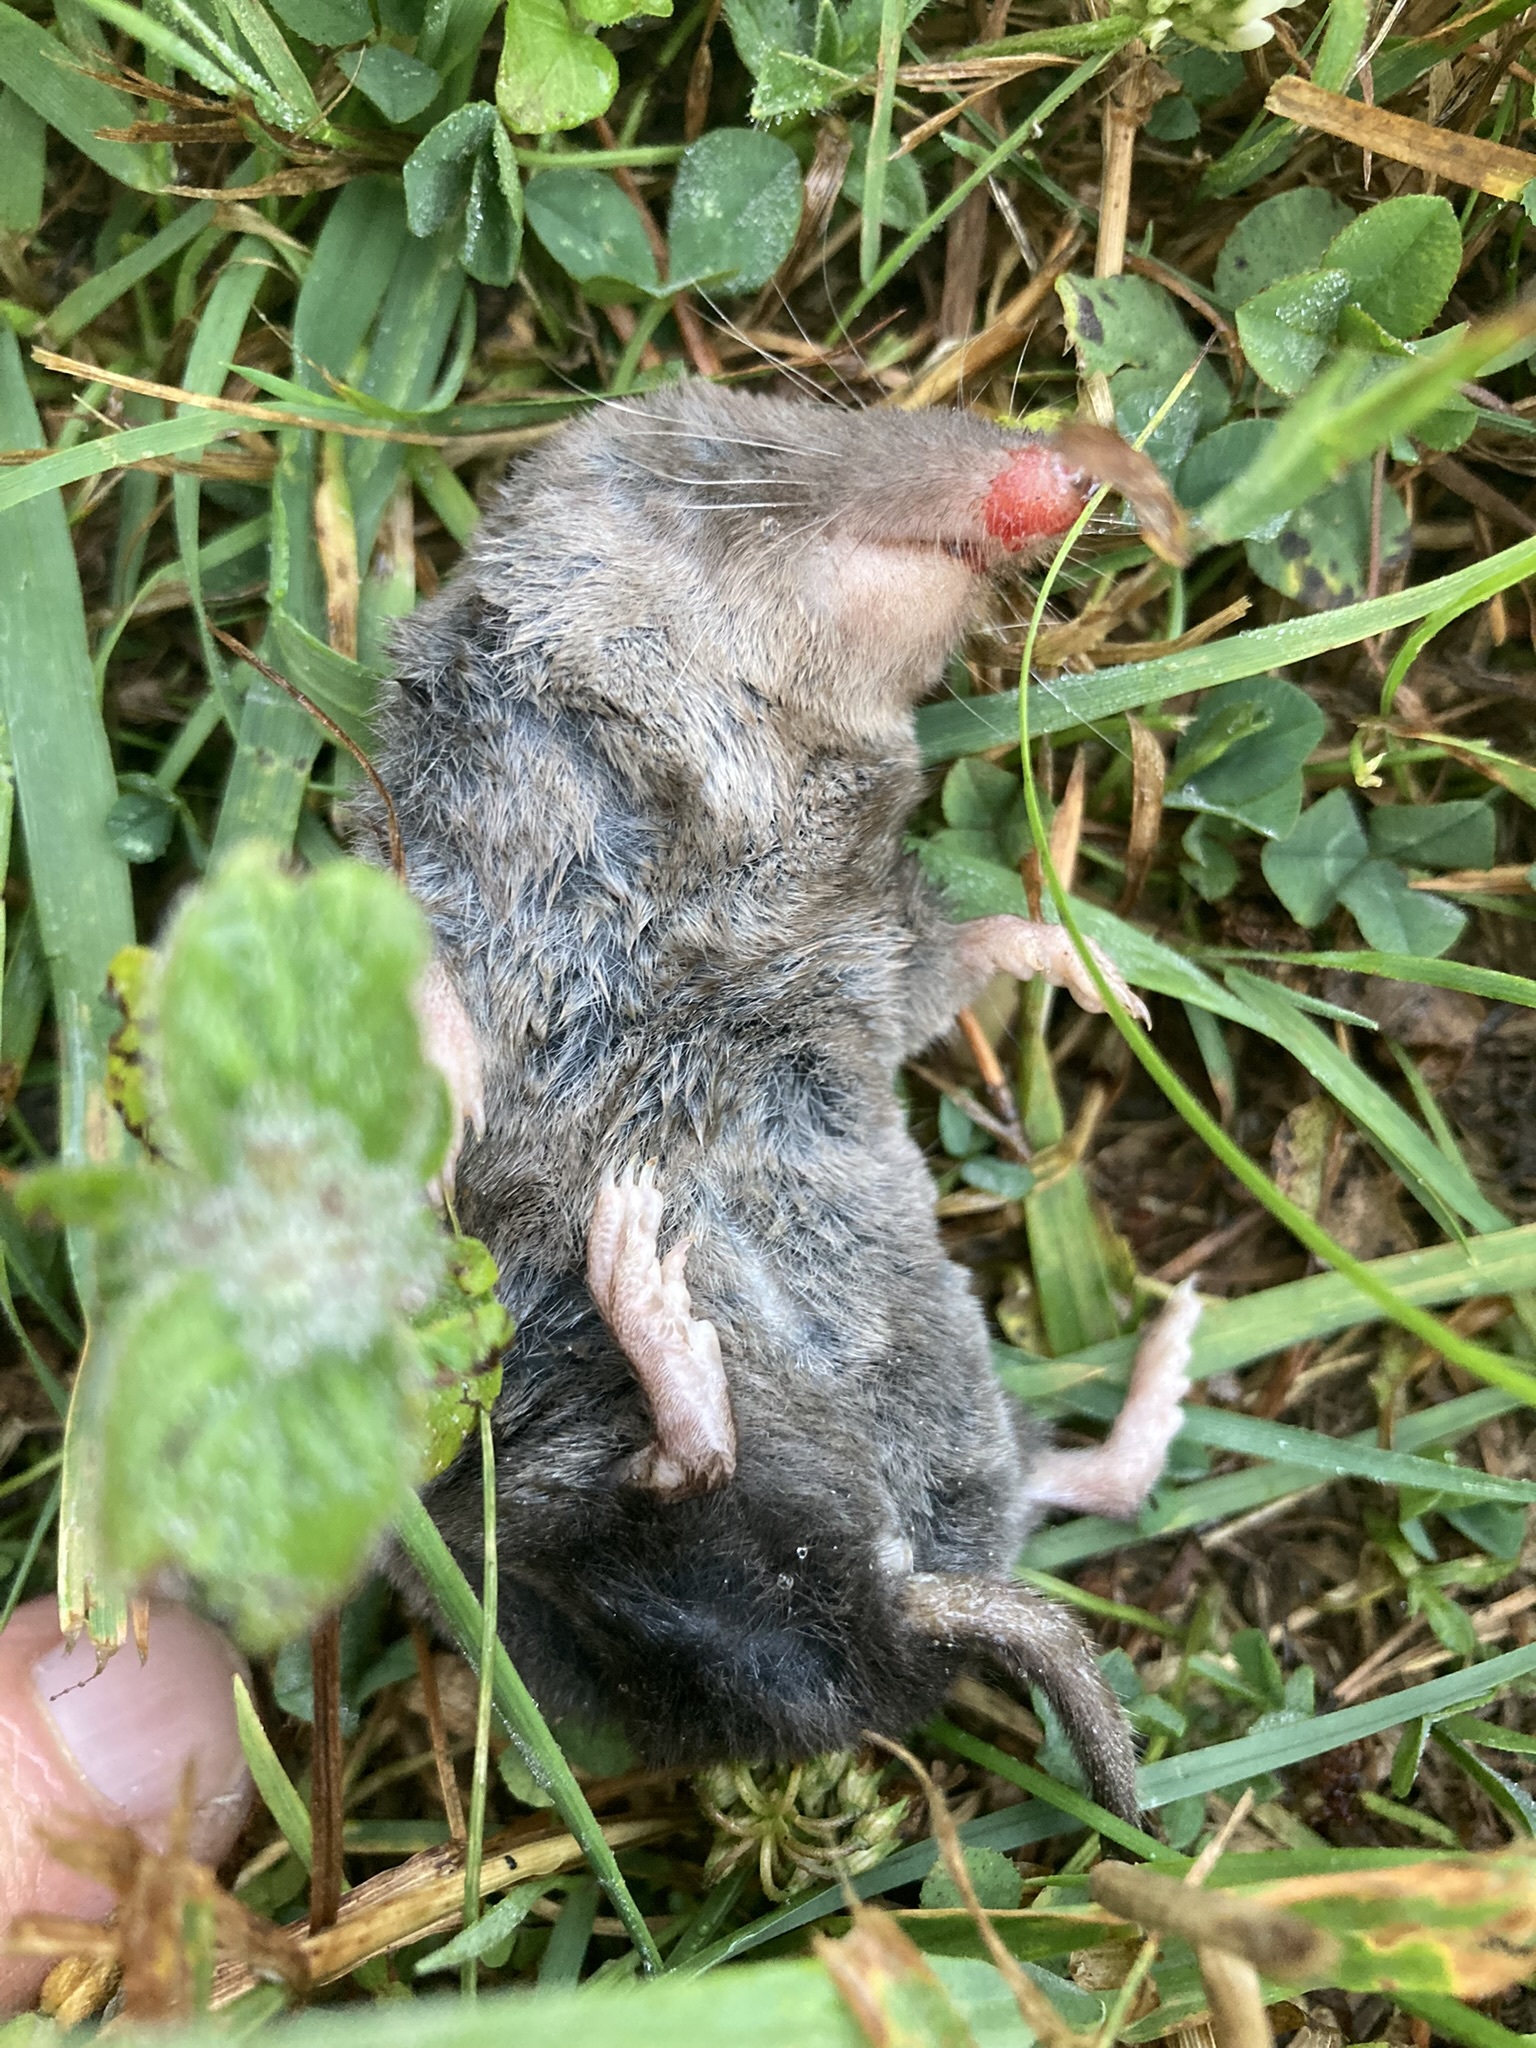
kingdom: Animalia
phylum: Chordata
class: Mammalia
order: Soricomorpha
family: Soricidae
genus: Blarina
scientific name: Blarina brevicauda
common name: Northern short-tailed shrew
